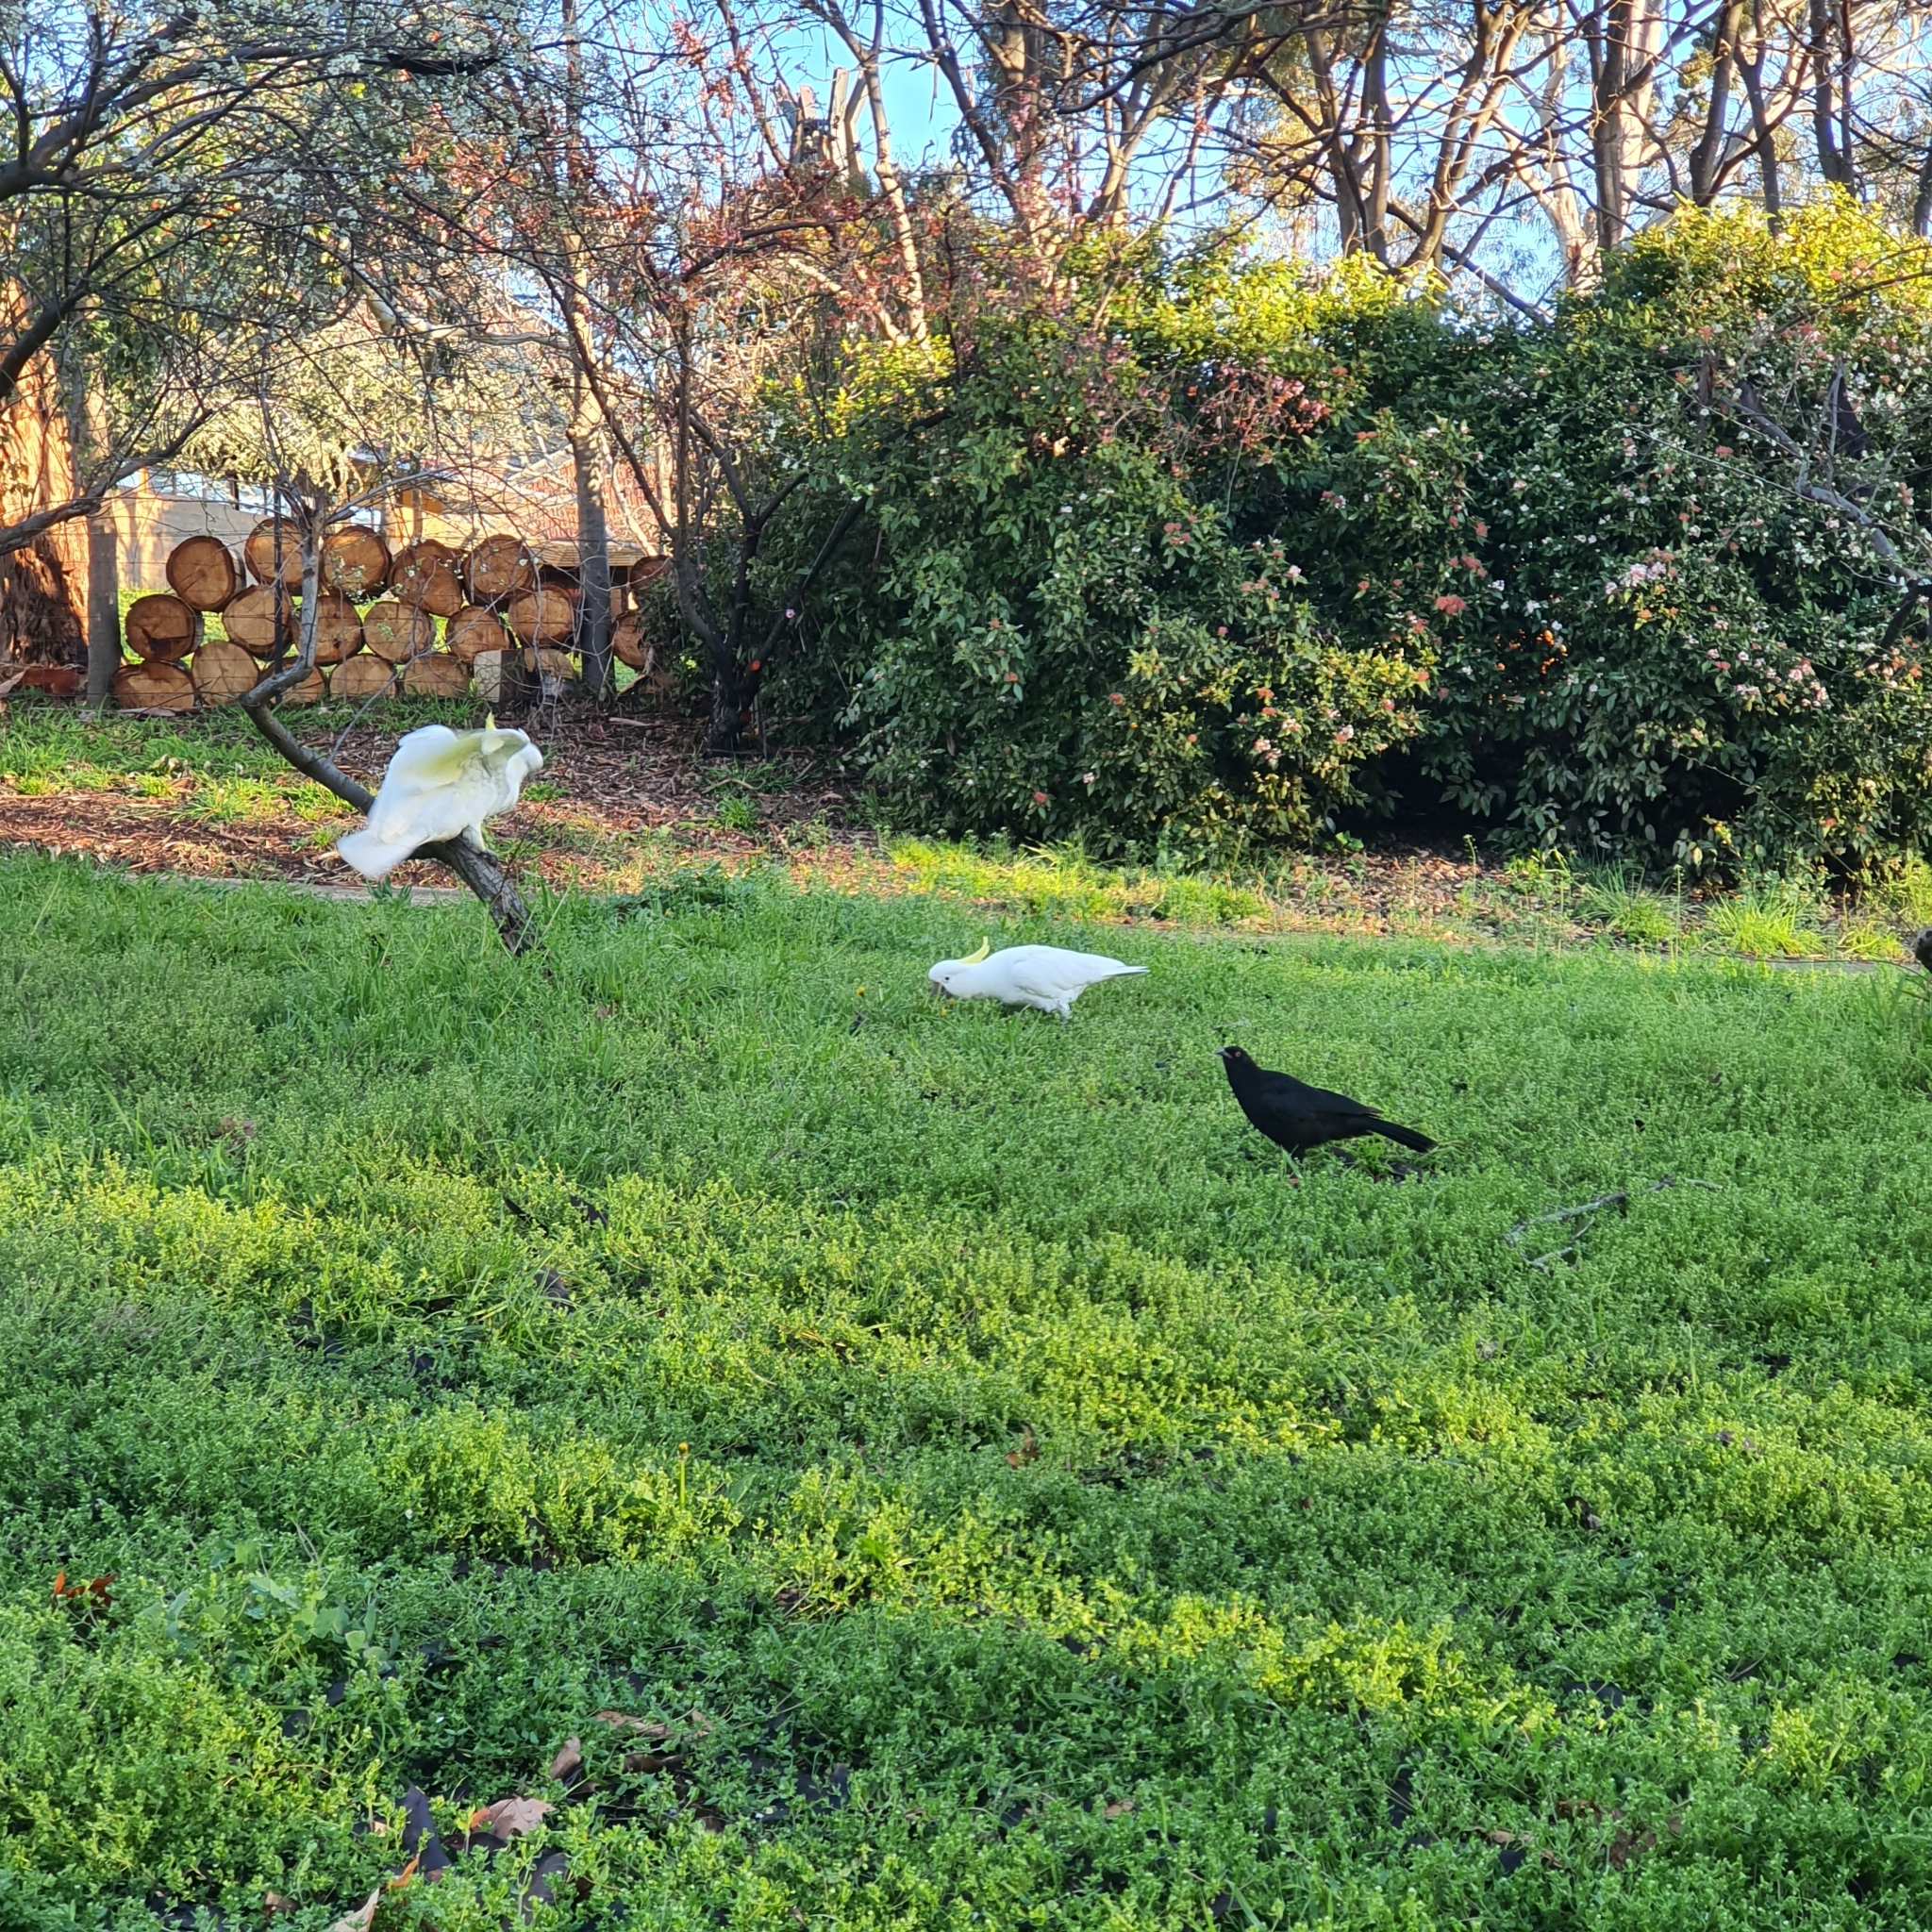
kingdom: Animalia
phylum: Chordata
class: Aves
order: Passeriformes
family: Corcoracidae
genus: Corcorax
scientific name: Corcorax melanoramphos
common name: White-winged chough
